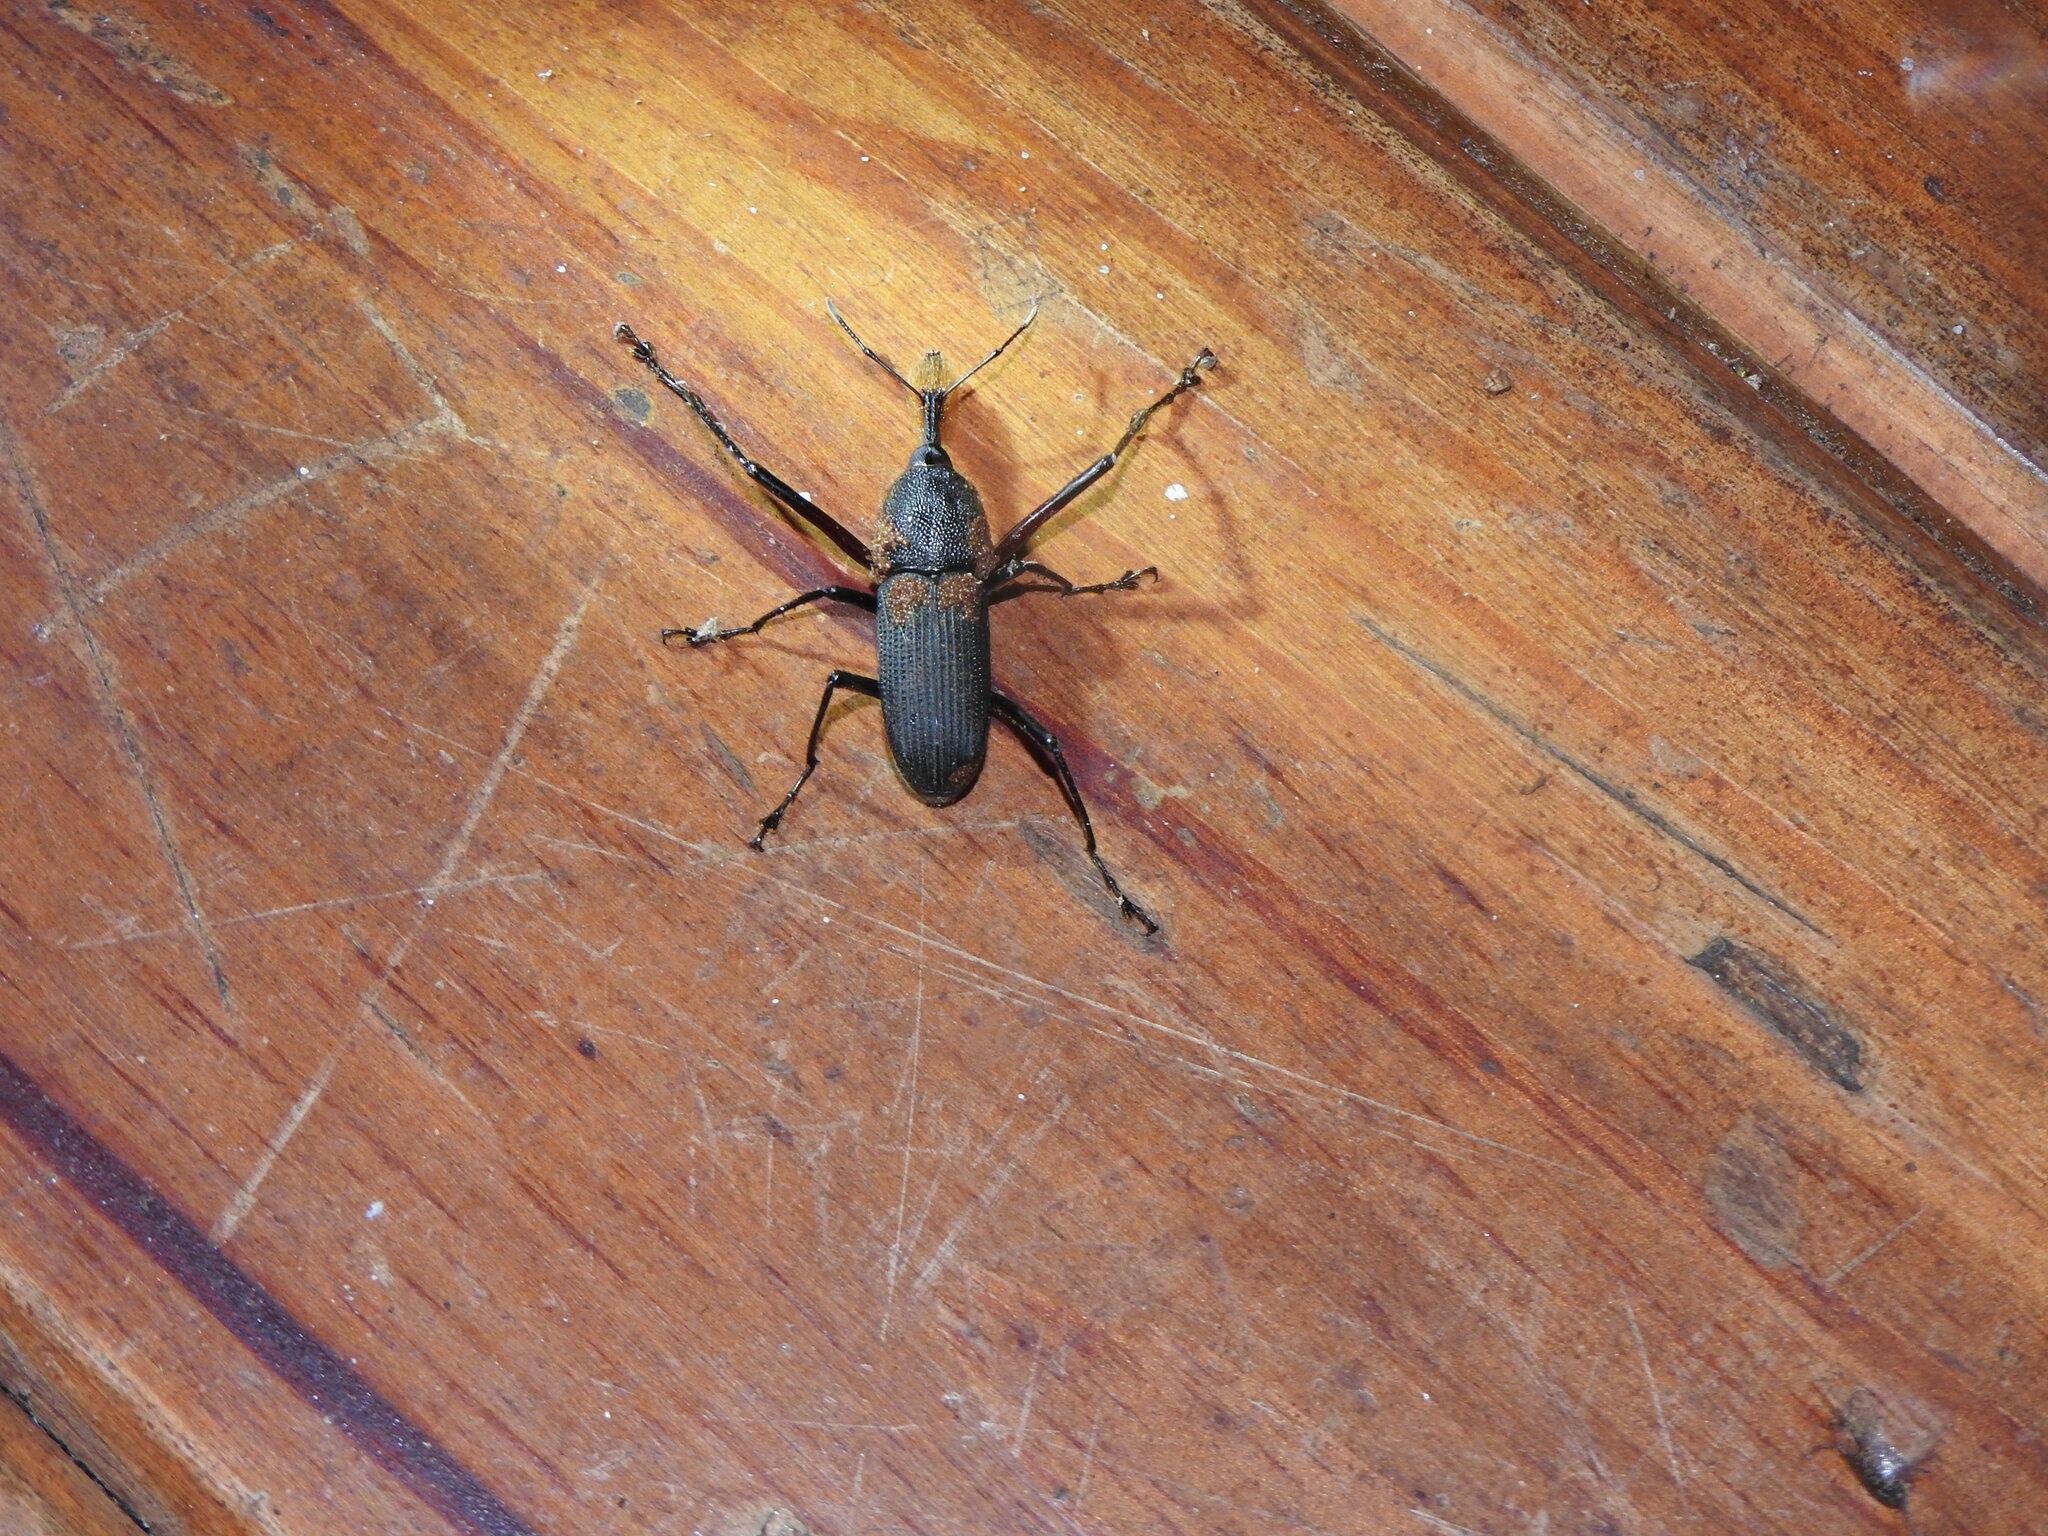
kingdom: Animalia
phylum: Arthropoda
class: Insecta
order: Coleoptera
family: Dryophthoridae
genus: Rhinostomus
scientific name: Rhinostomus barbirostris
